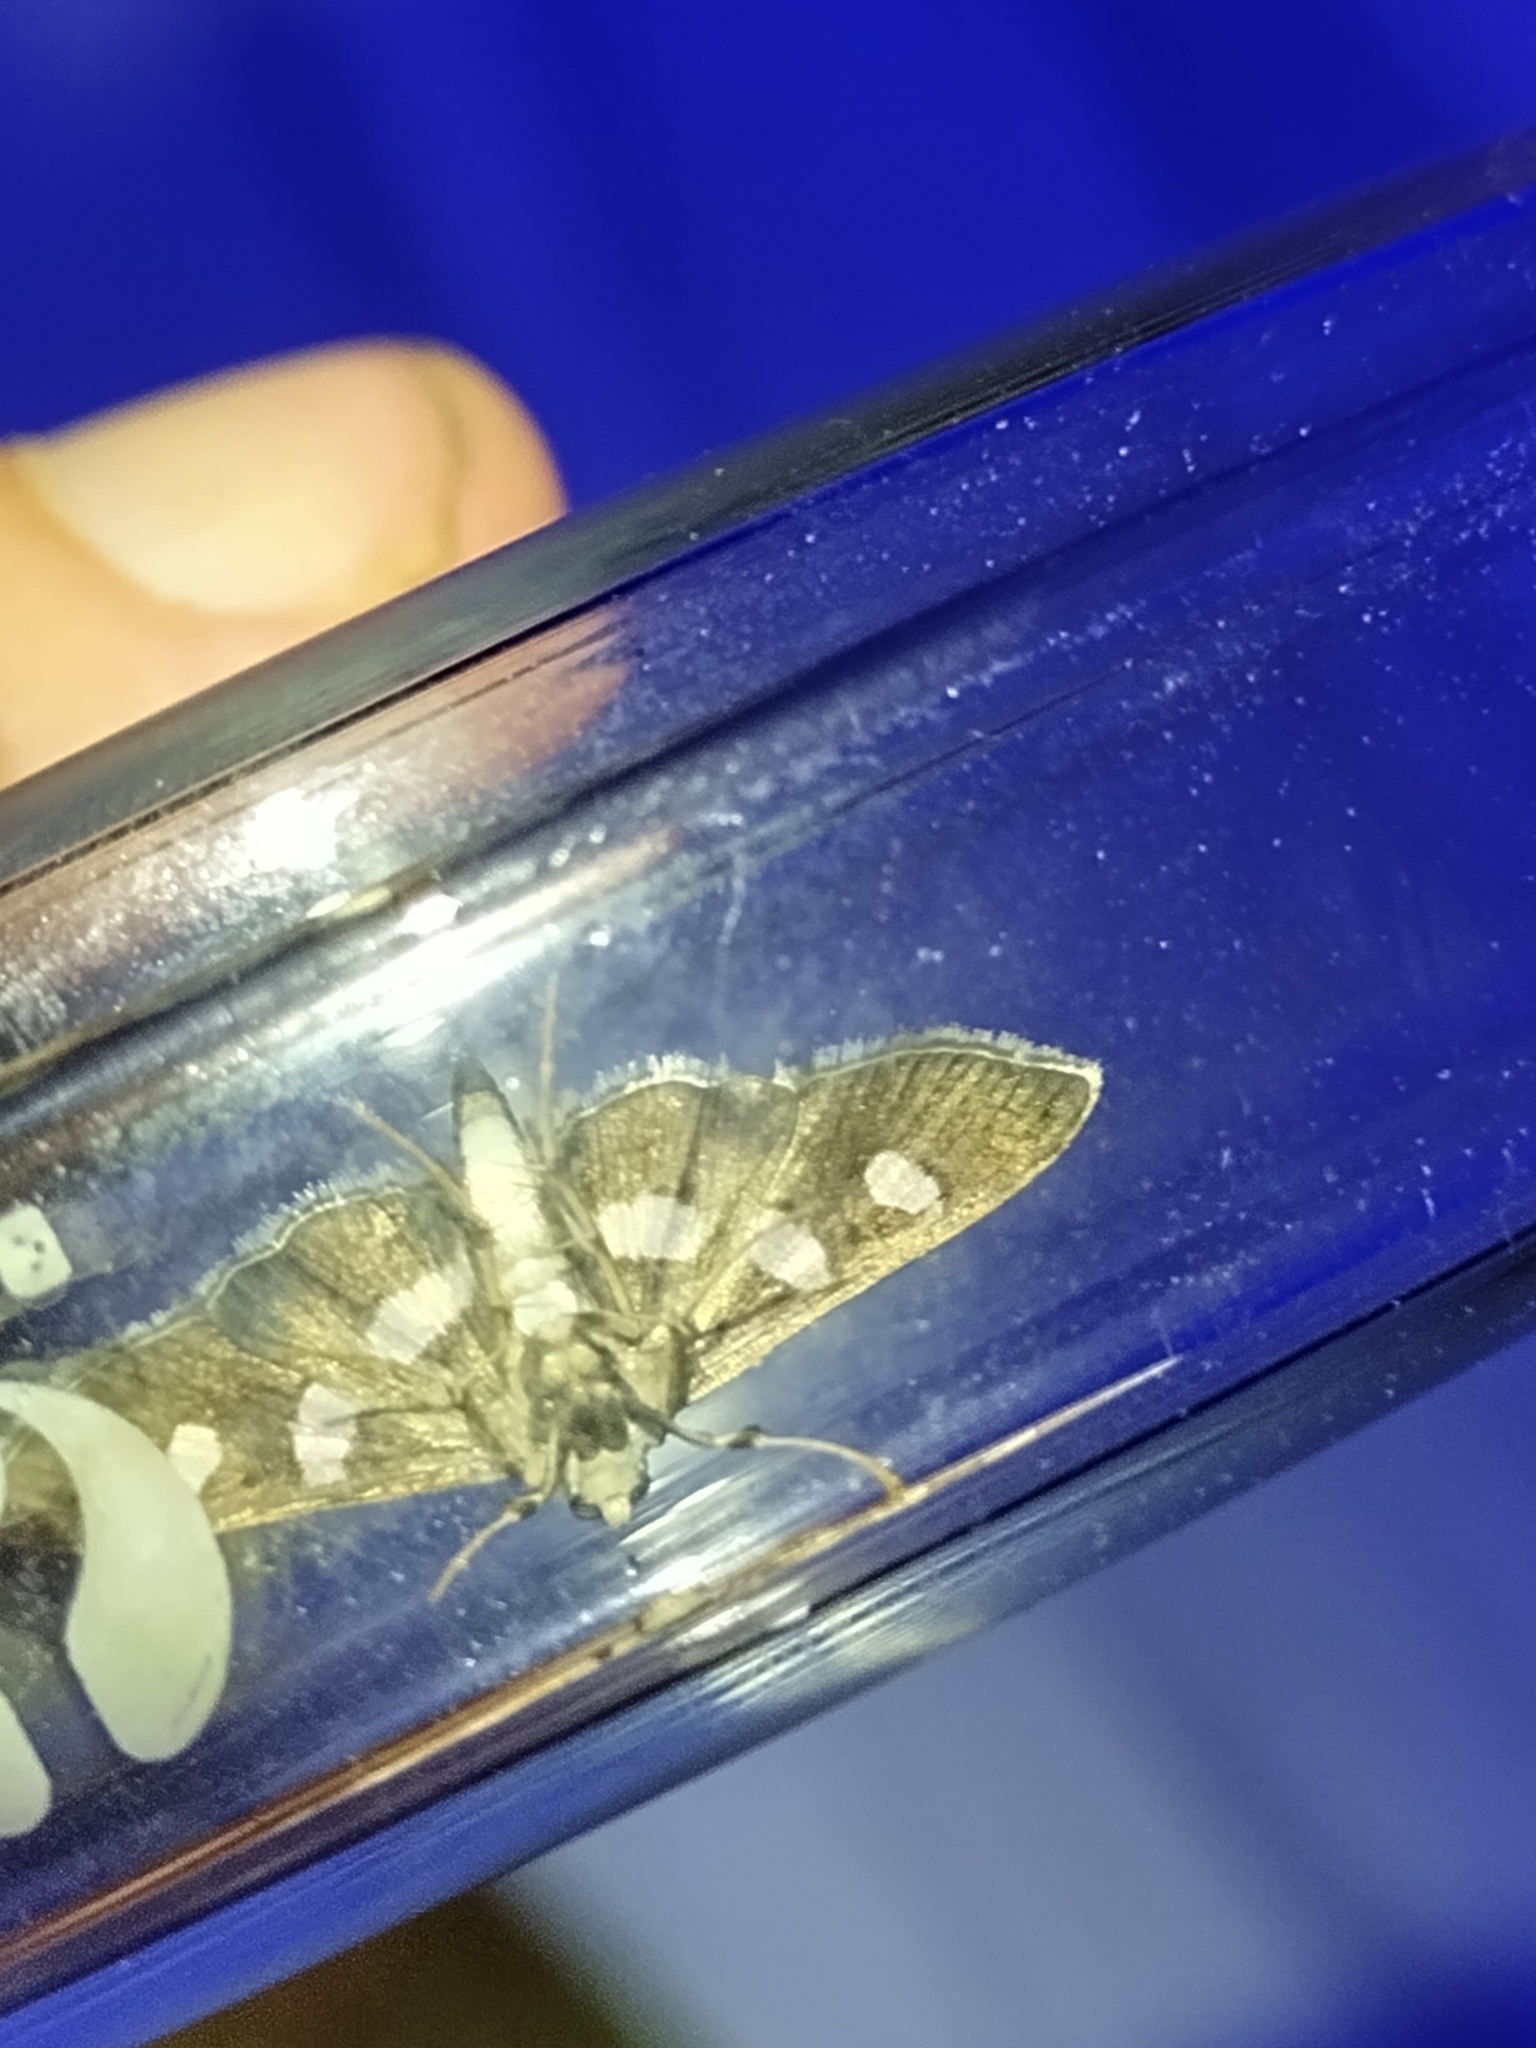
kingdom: Animalia
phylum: Arthropoda
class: Insecta
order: Lepidoptera
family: Crambidae
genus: Desmia
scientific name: Desmia funeralis
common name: Grape leaf folder moth
